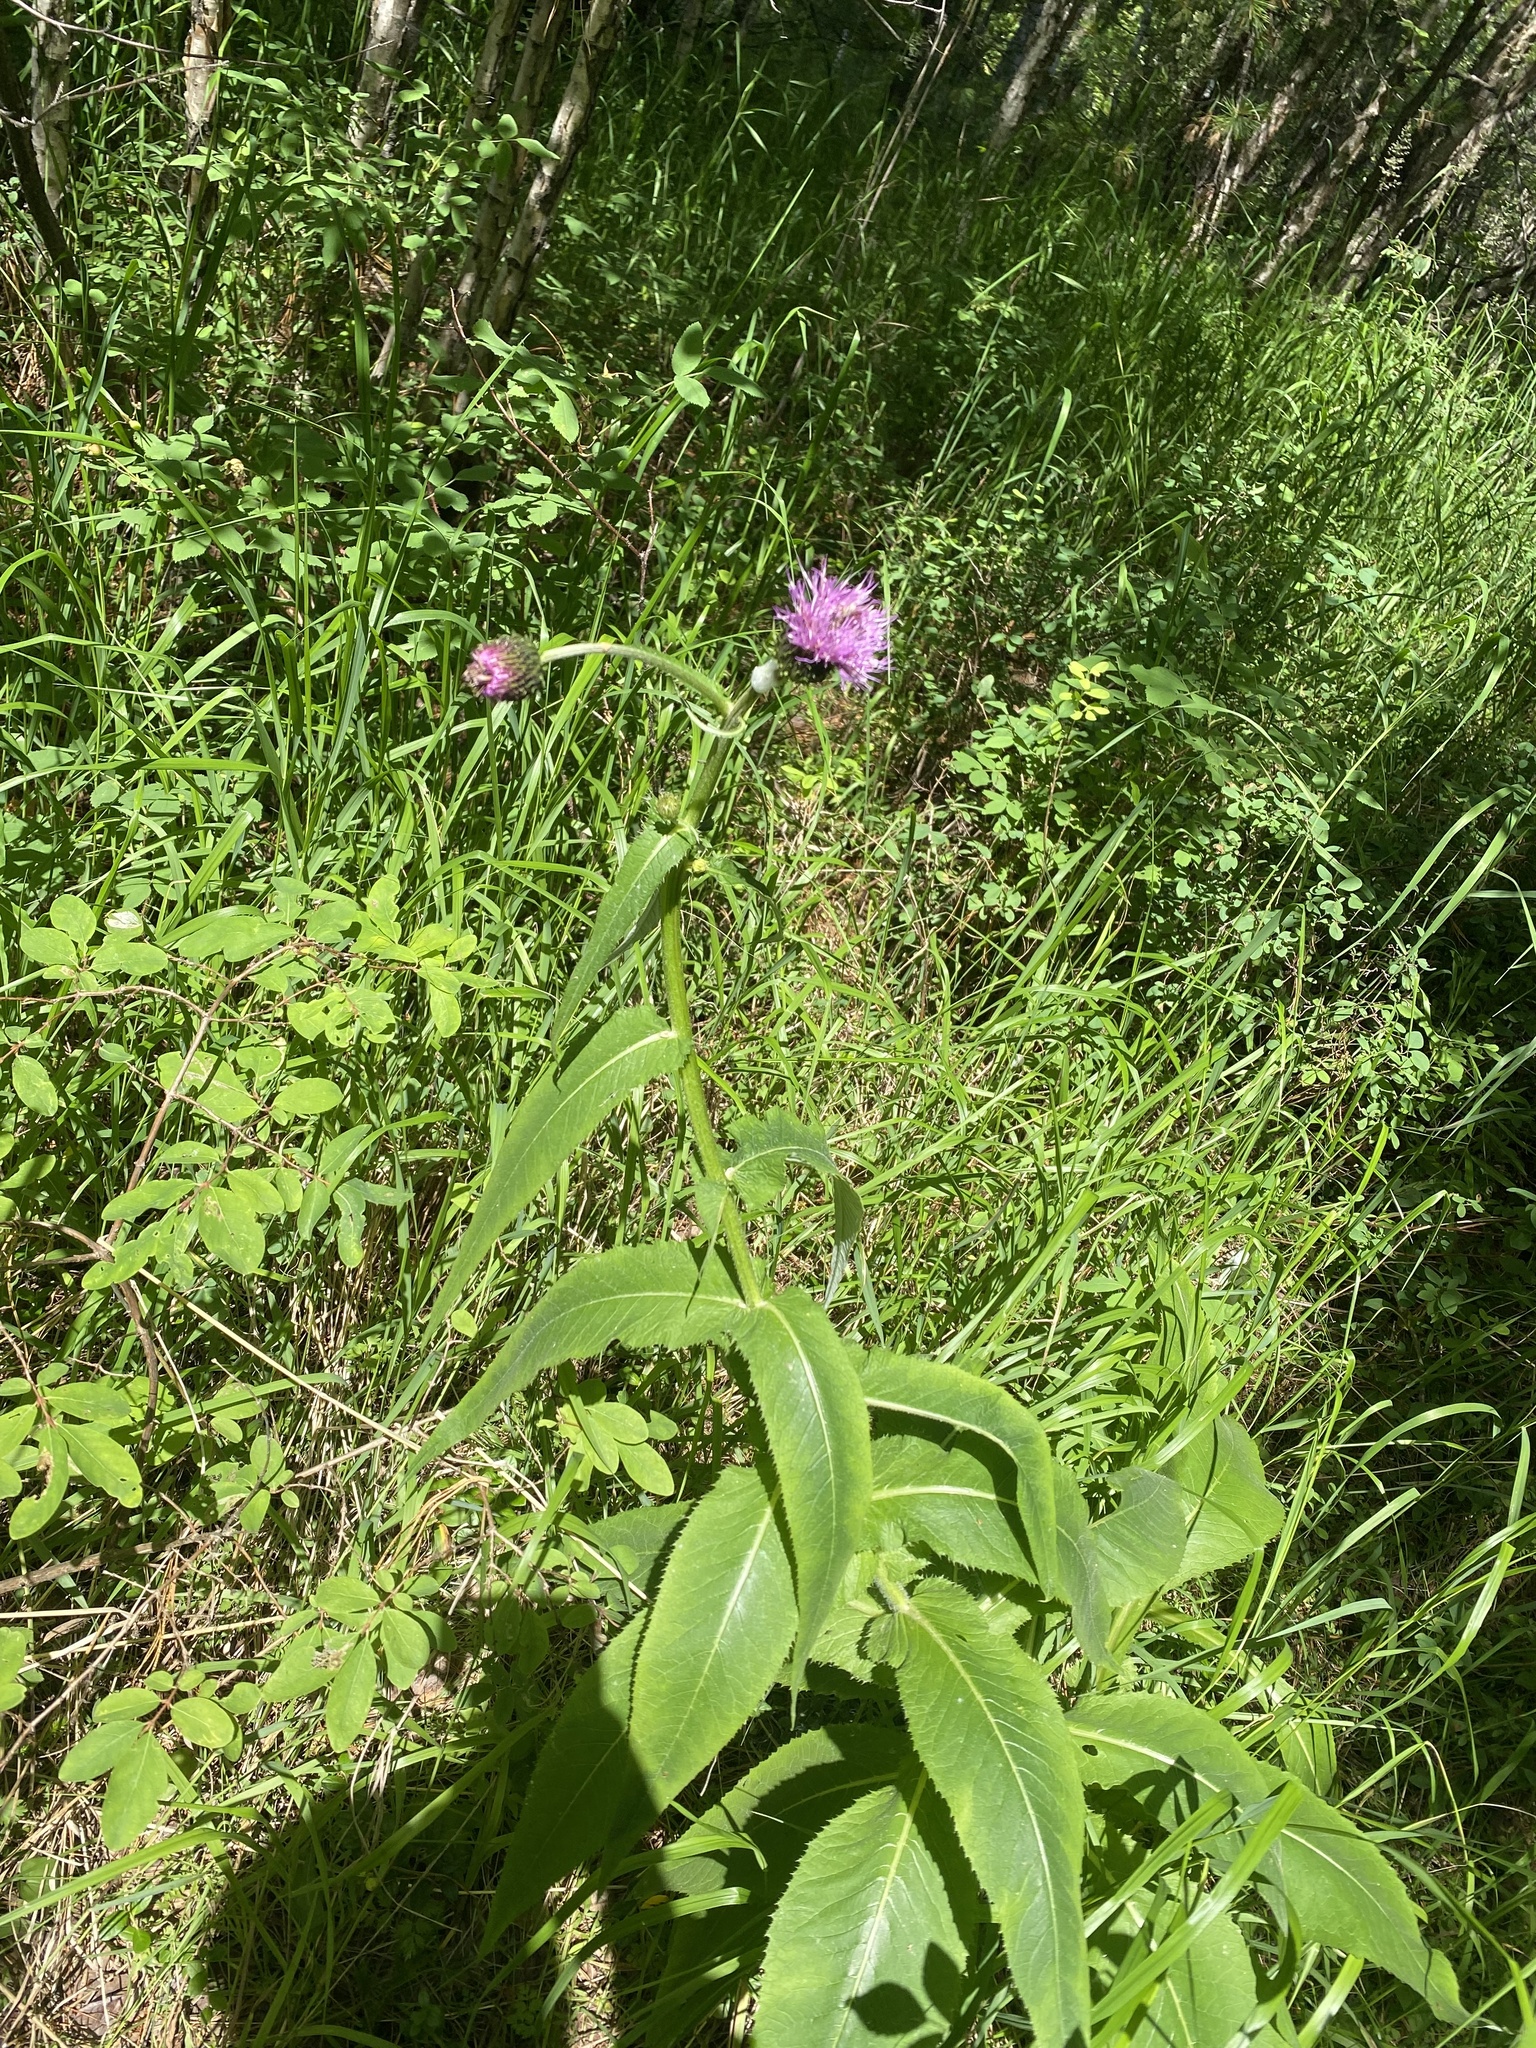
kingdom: Plantae
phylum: Tracheophyta
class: Magnoliopsida
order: Asterales
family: Asteraceae
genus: Cirsium
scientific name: Cirsium helenioides
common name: Melancholy thistle
